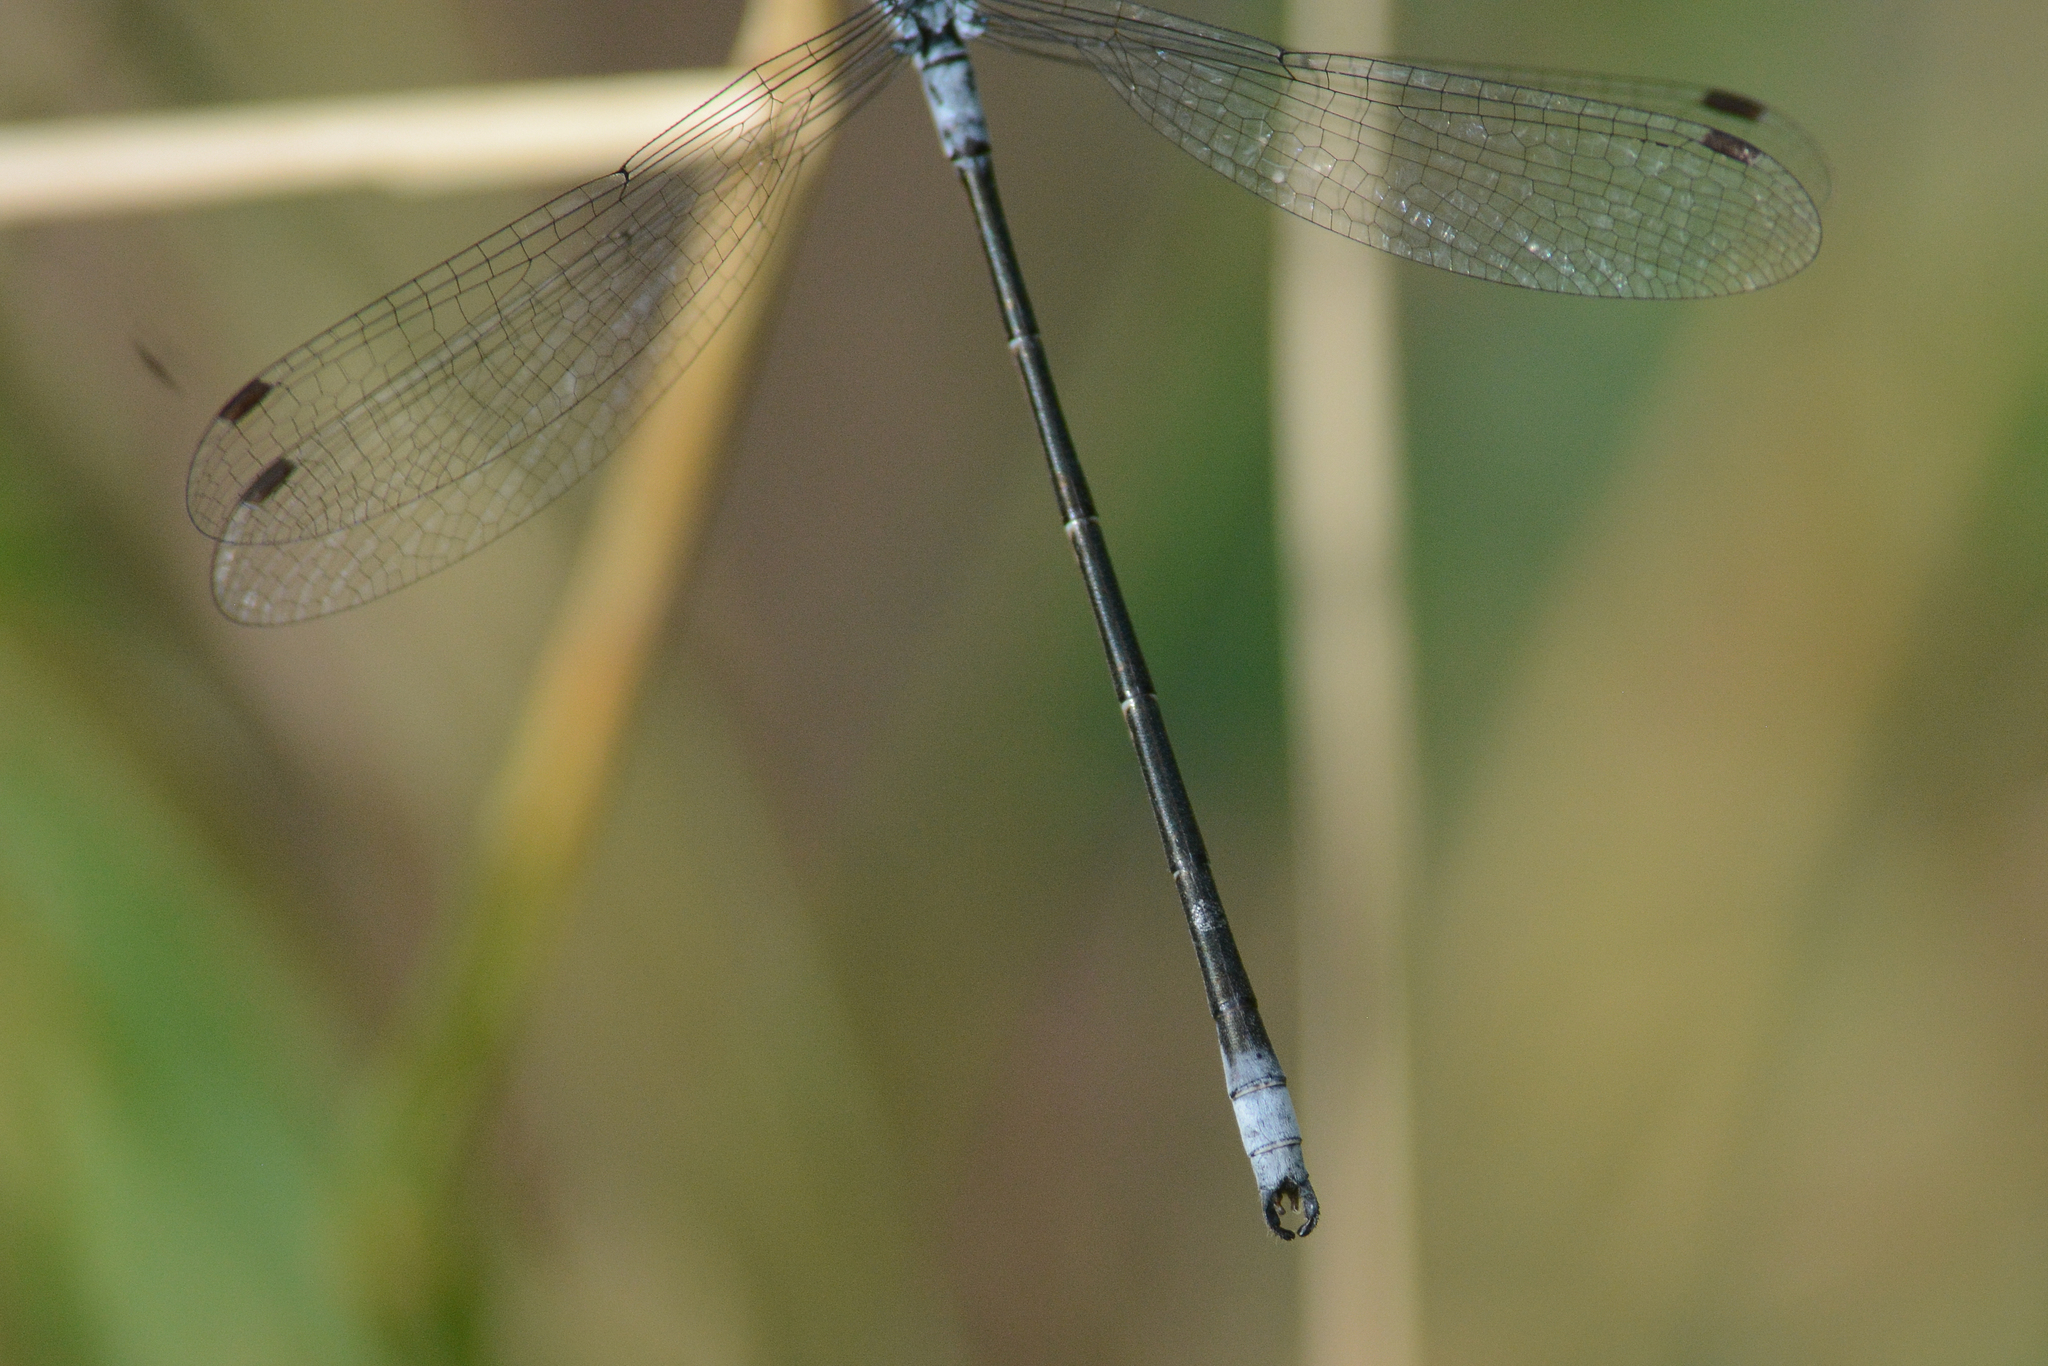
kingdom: Animalia
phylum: Arthropoda
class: Insecta
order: Odonata
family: Lestidae
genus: Lestes
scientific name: Lestes congener
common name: Spotted spreadwing
